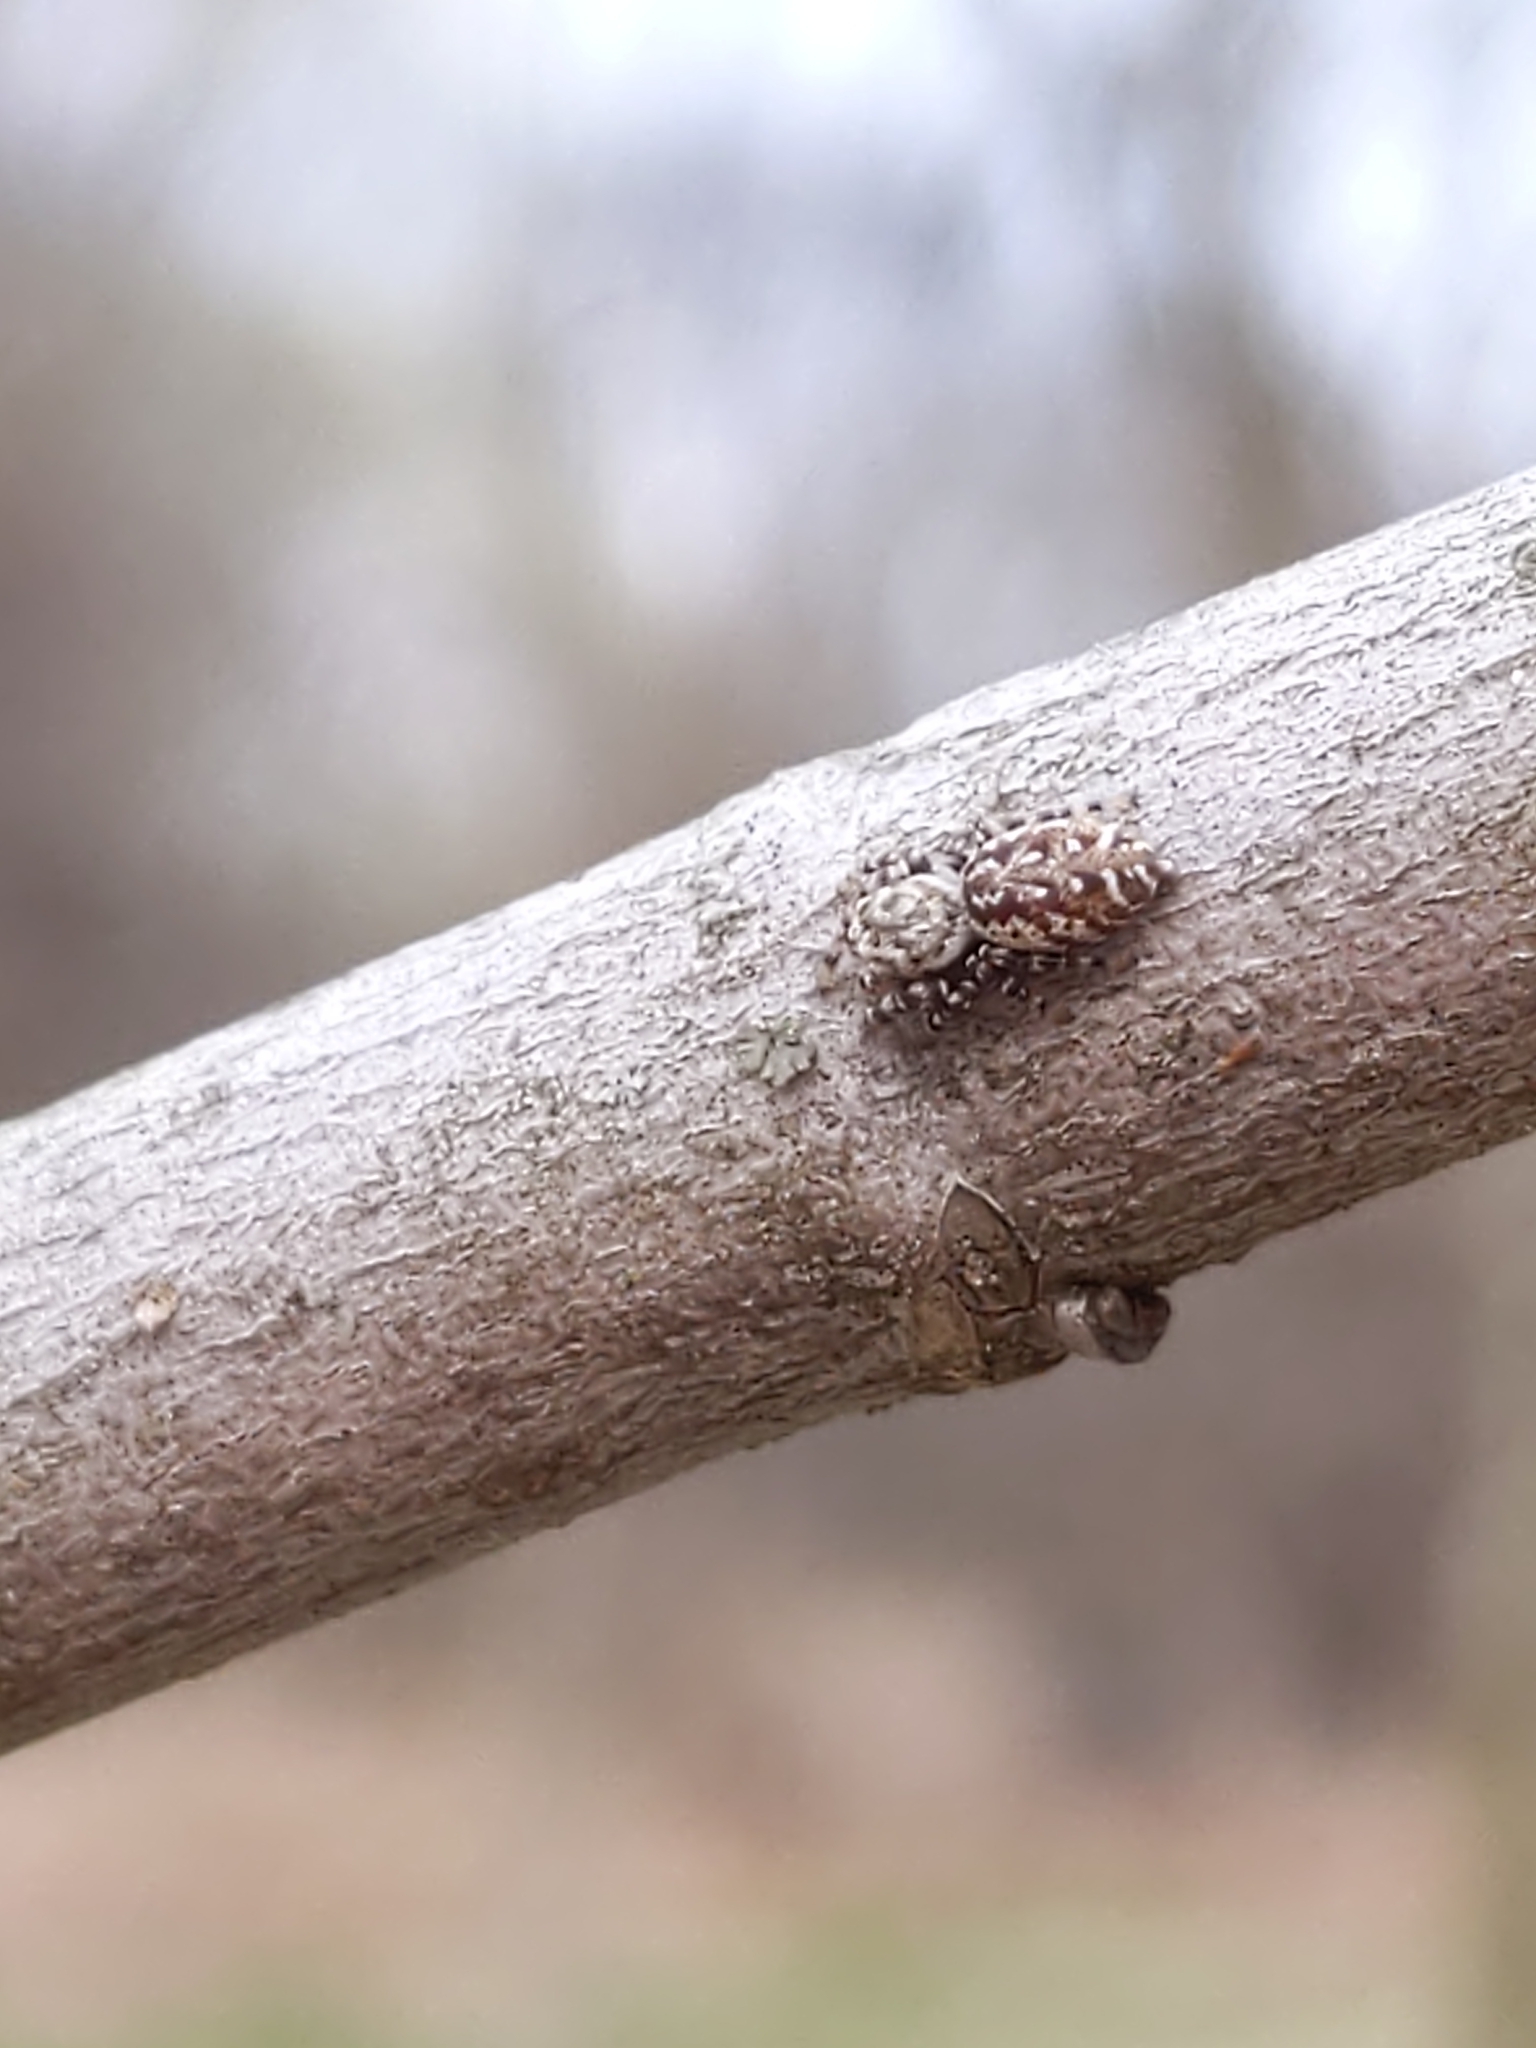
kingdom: Animalia
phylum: Arthropoda
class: Arachnida
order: Araneae
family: Salticidae
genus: Pelegrina
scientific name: Pelegrina galathea
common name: Jumping spiders
